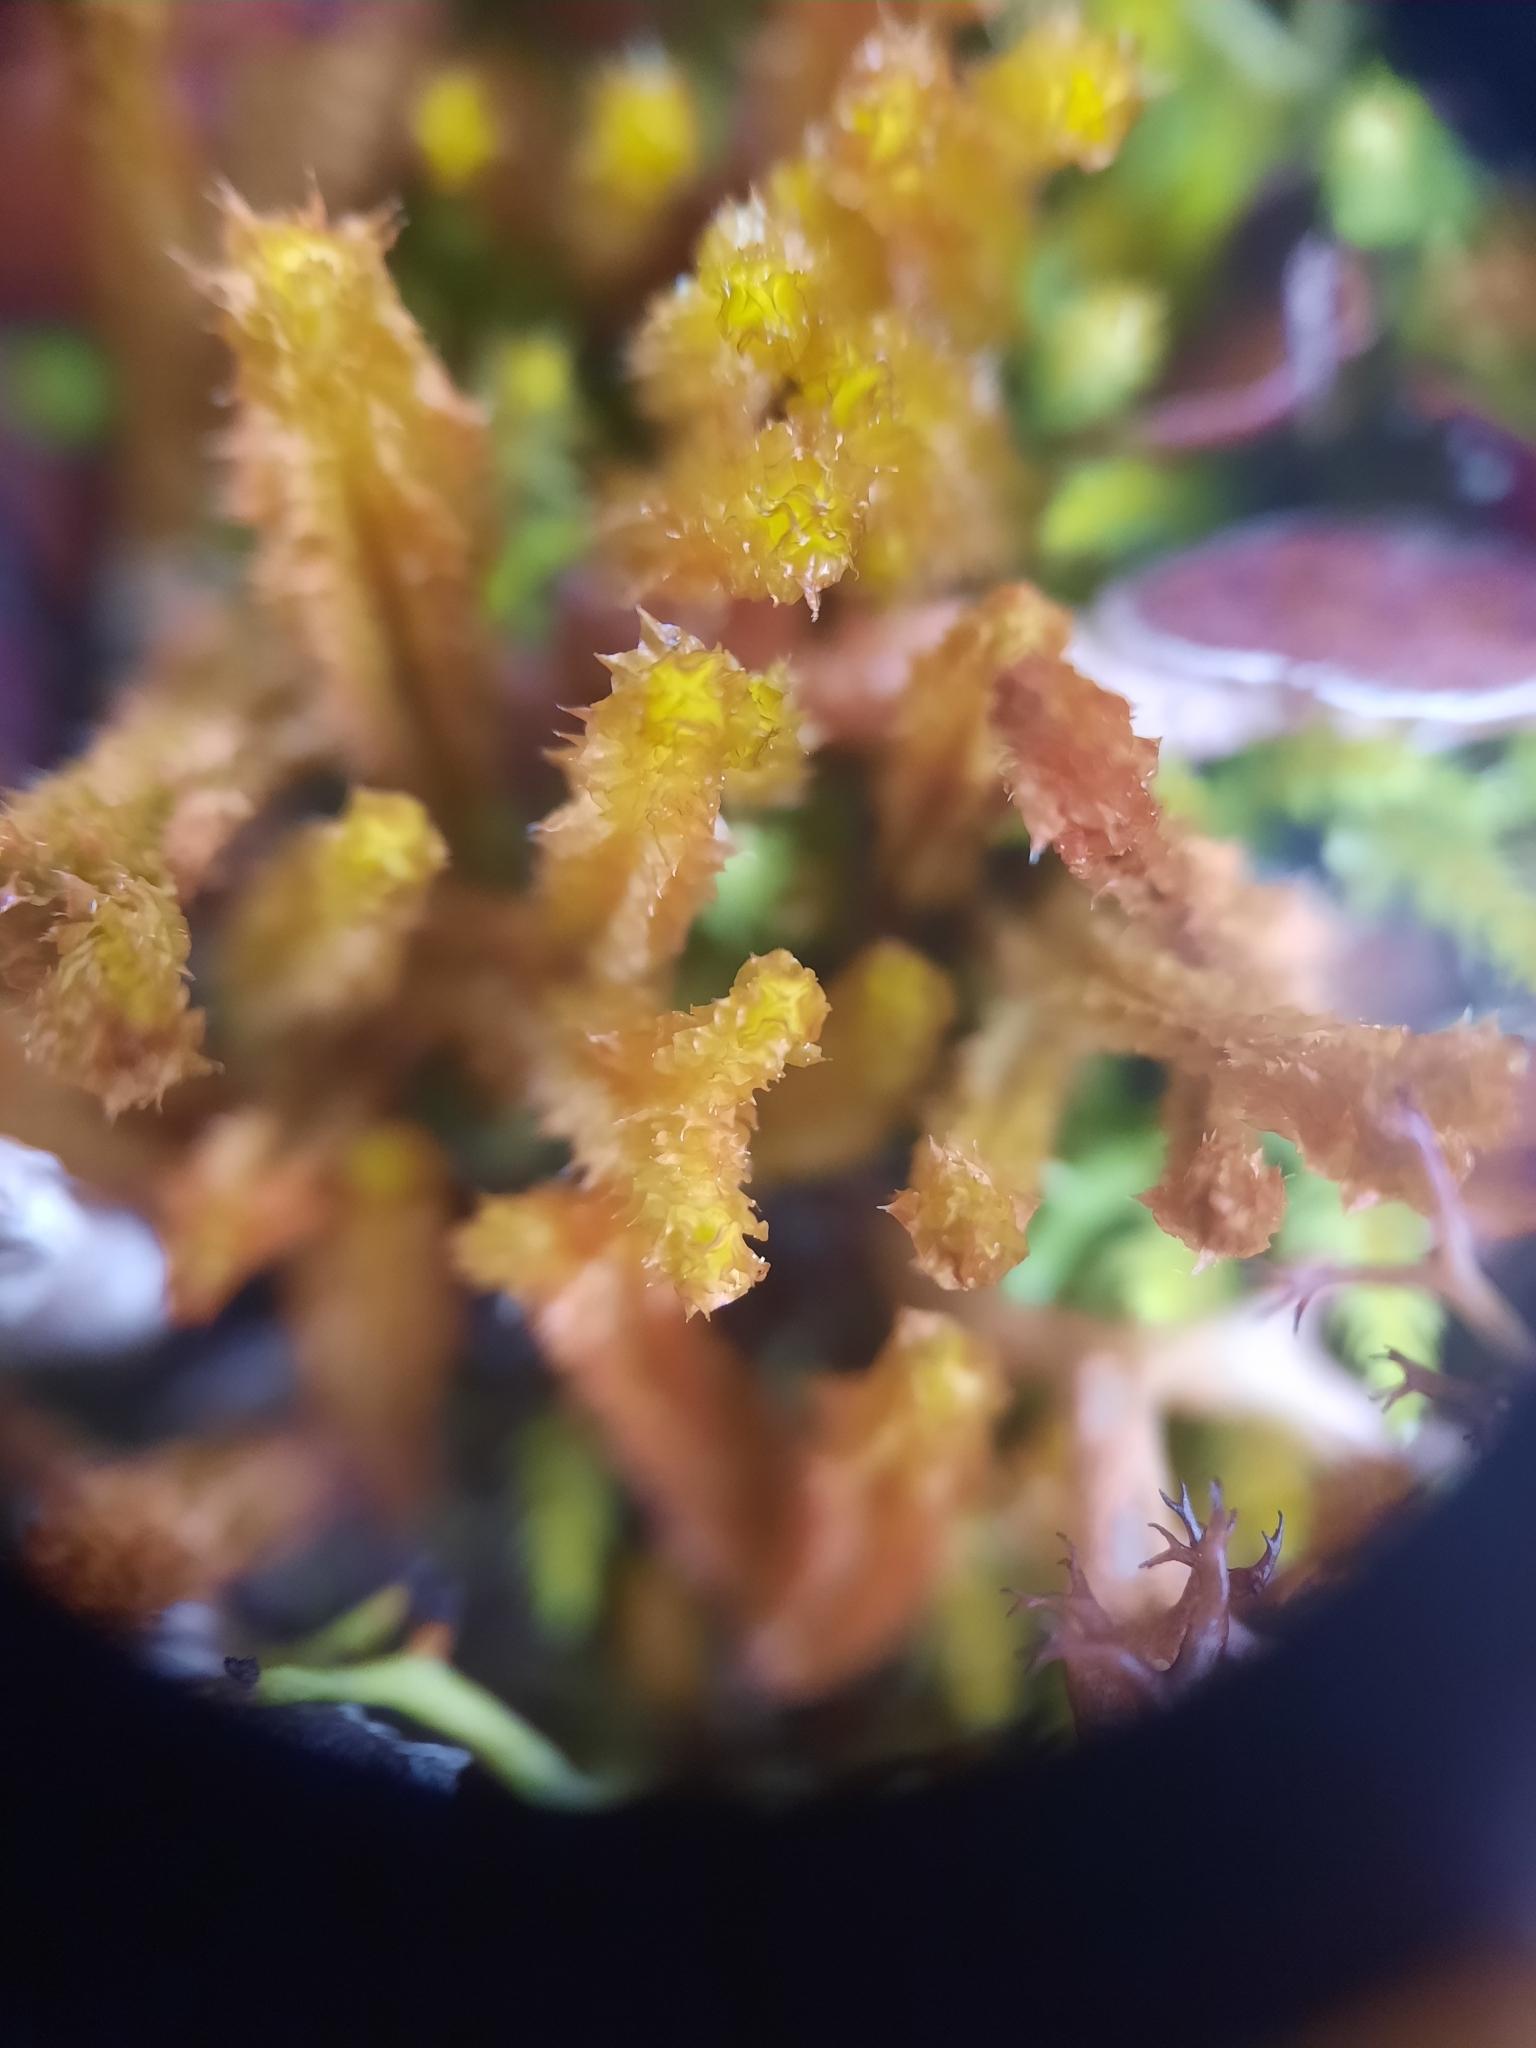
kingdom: Plantae
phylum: Marchantiophyta
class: Jungermanniopsida
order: Jungermanniales
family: Anastrophyllaceae
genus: Chandonanthus
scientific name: Chandonanthus squarrosus
